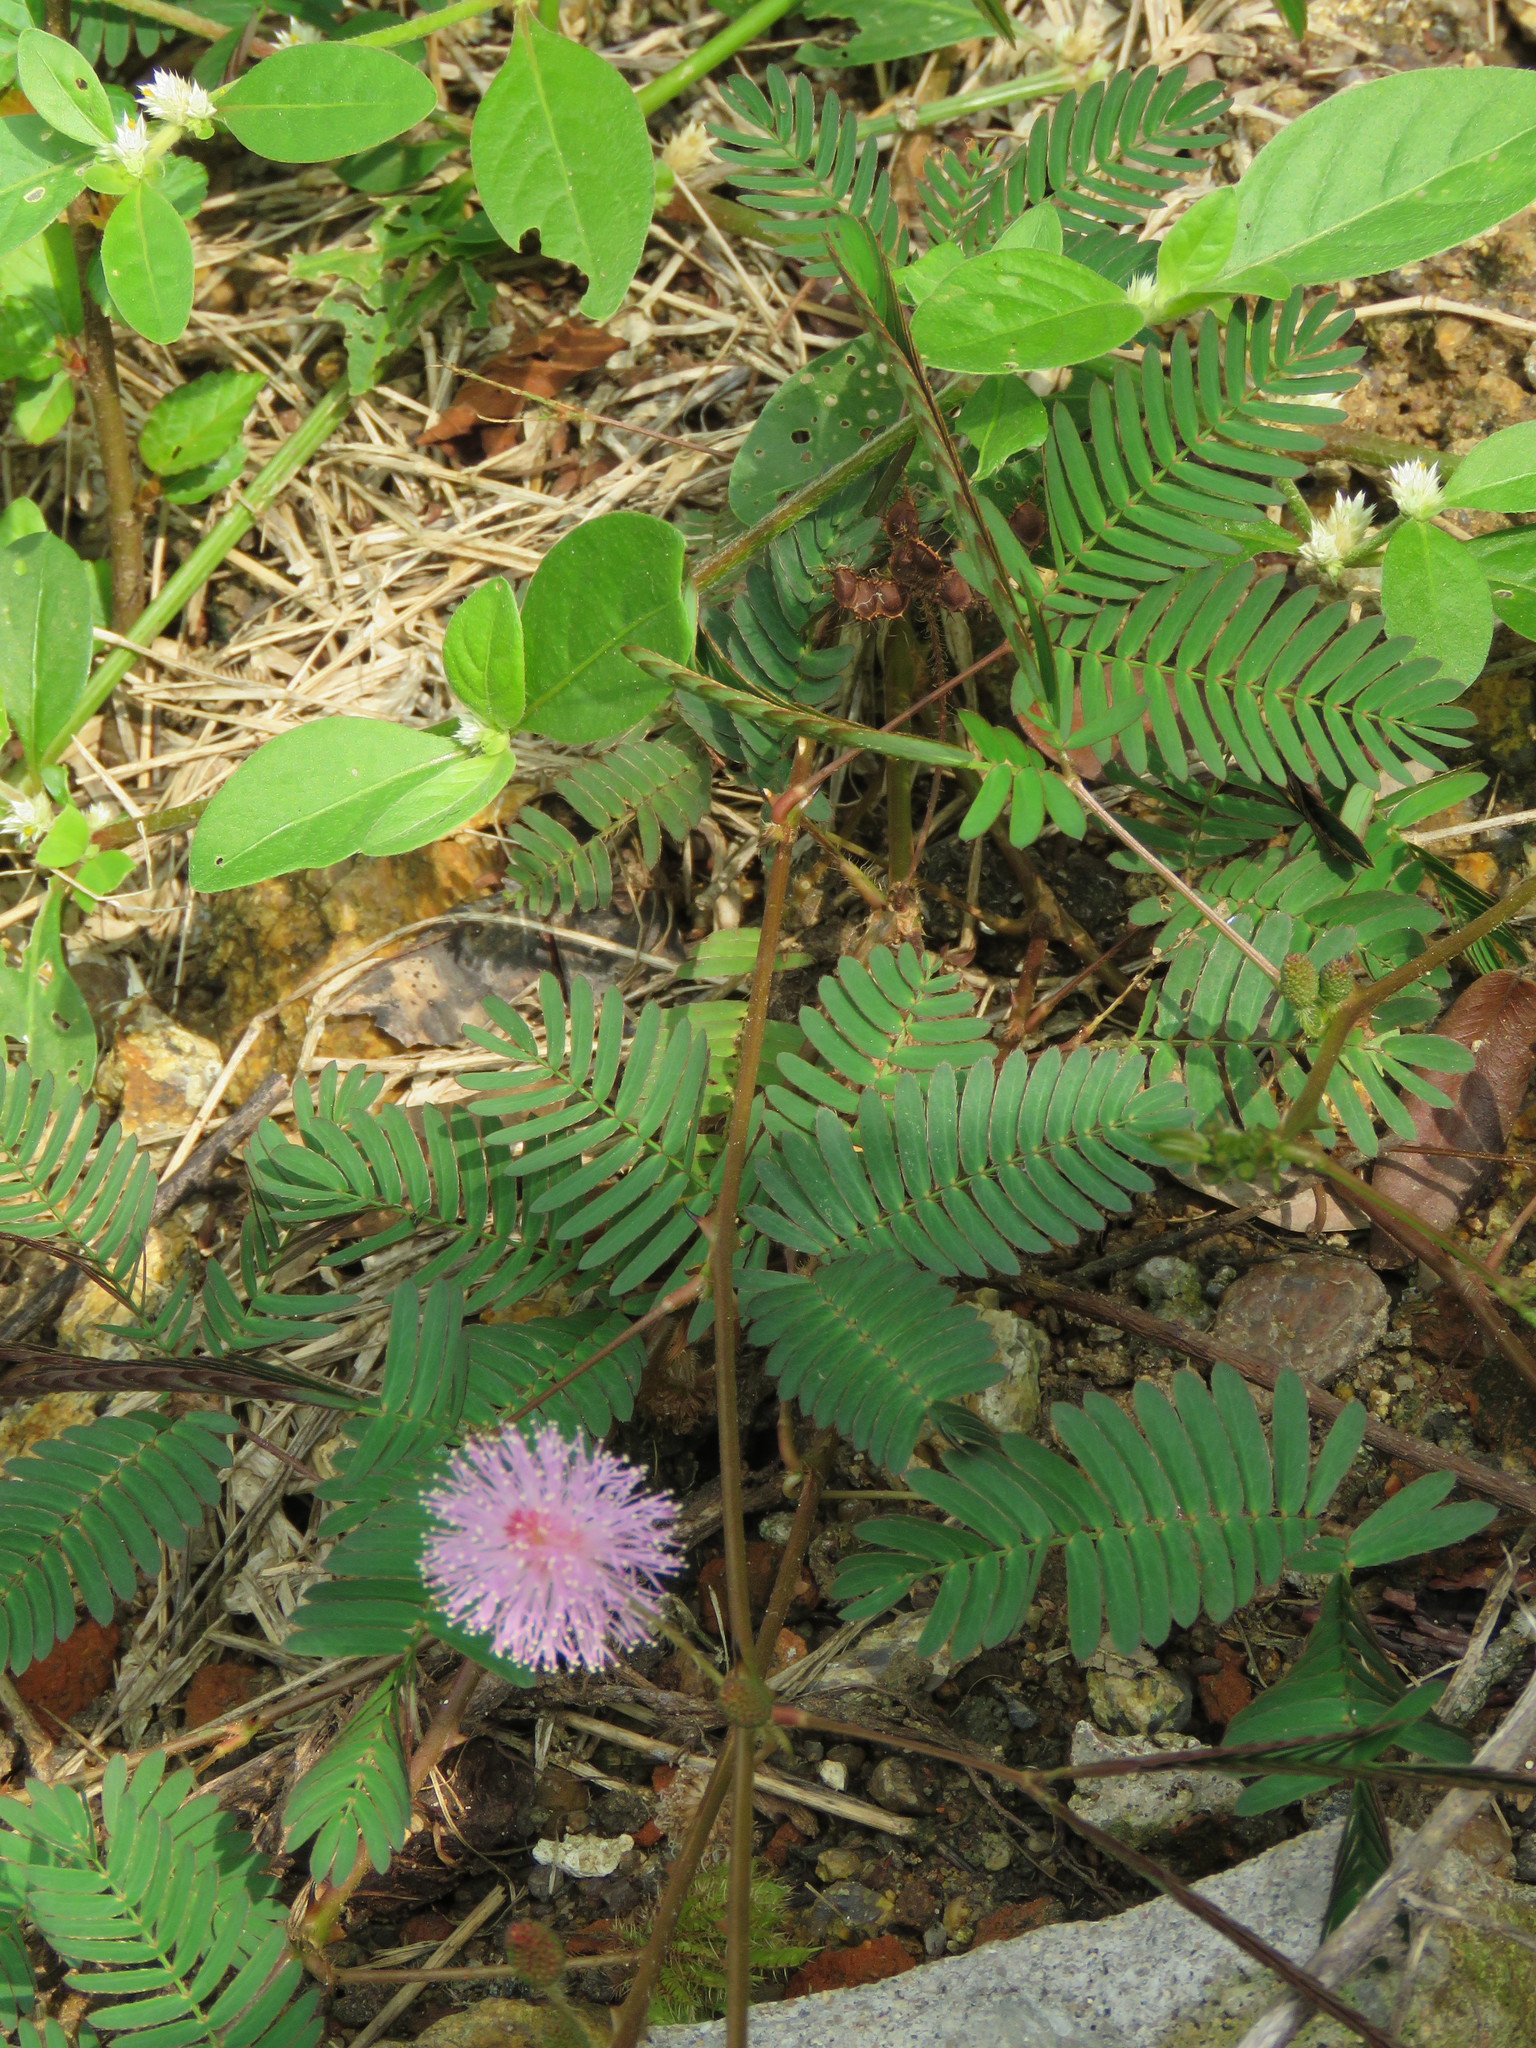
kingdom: Plantae
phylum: Tracheophyta
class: Magnoliopsida
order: Fabales
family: Fabaceae
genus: Mimosa
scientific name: Mimosa pudica
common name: Sensitive plant
